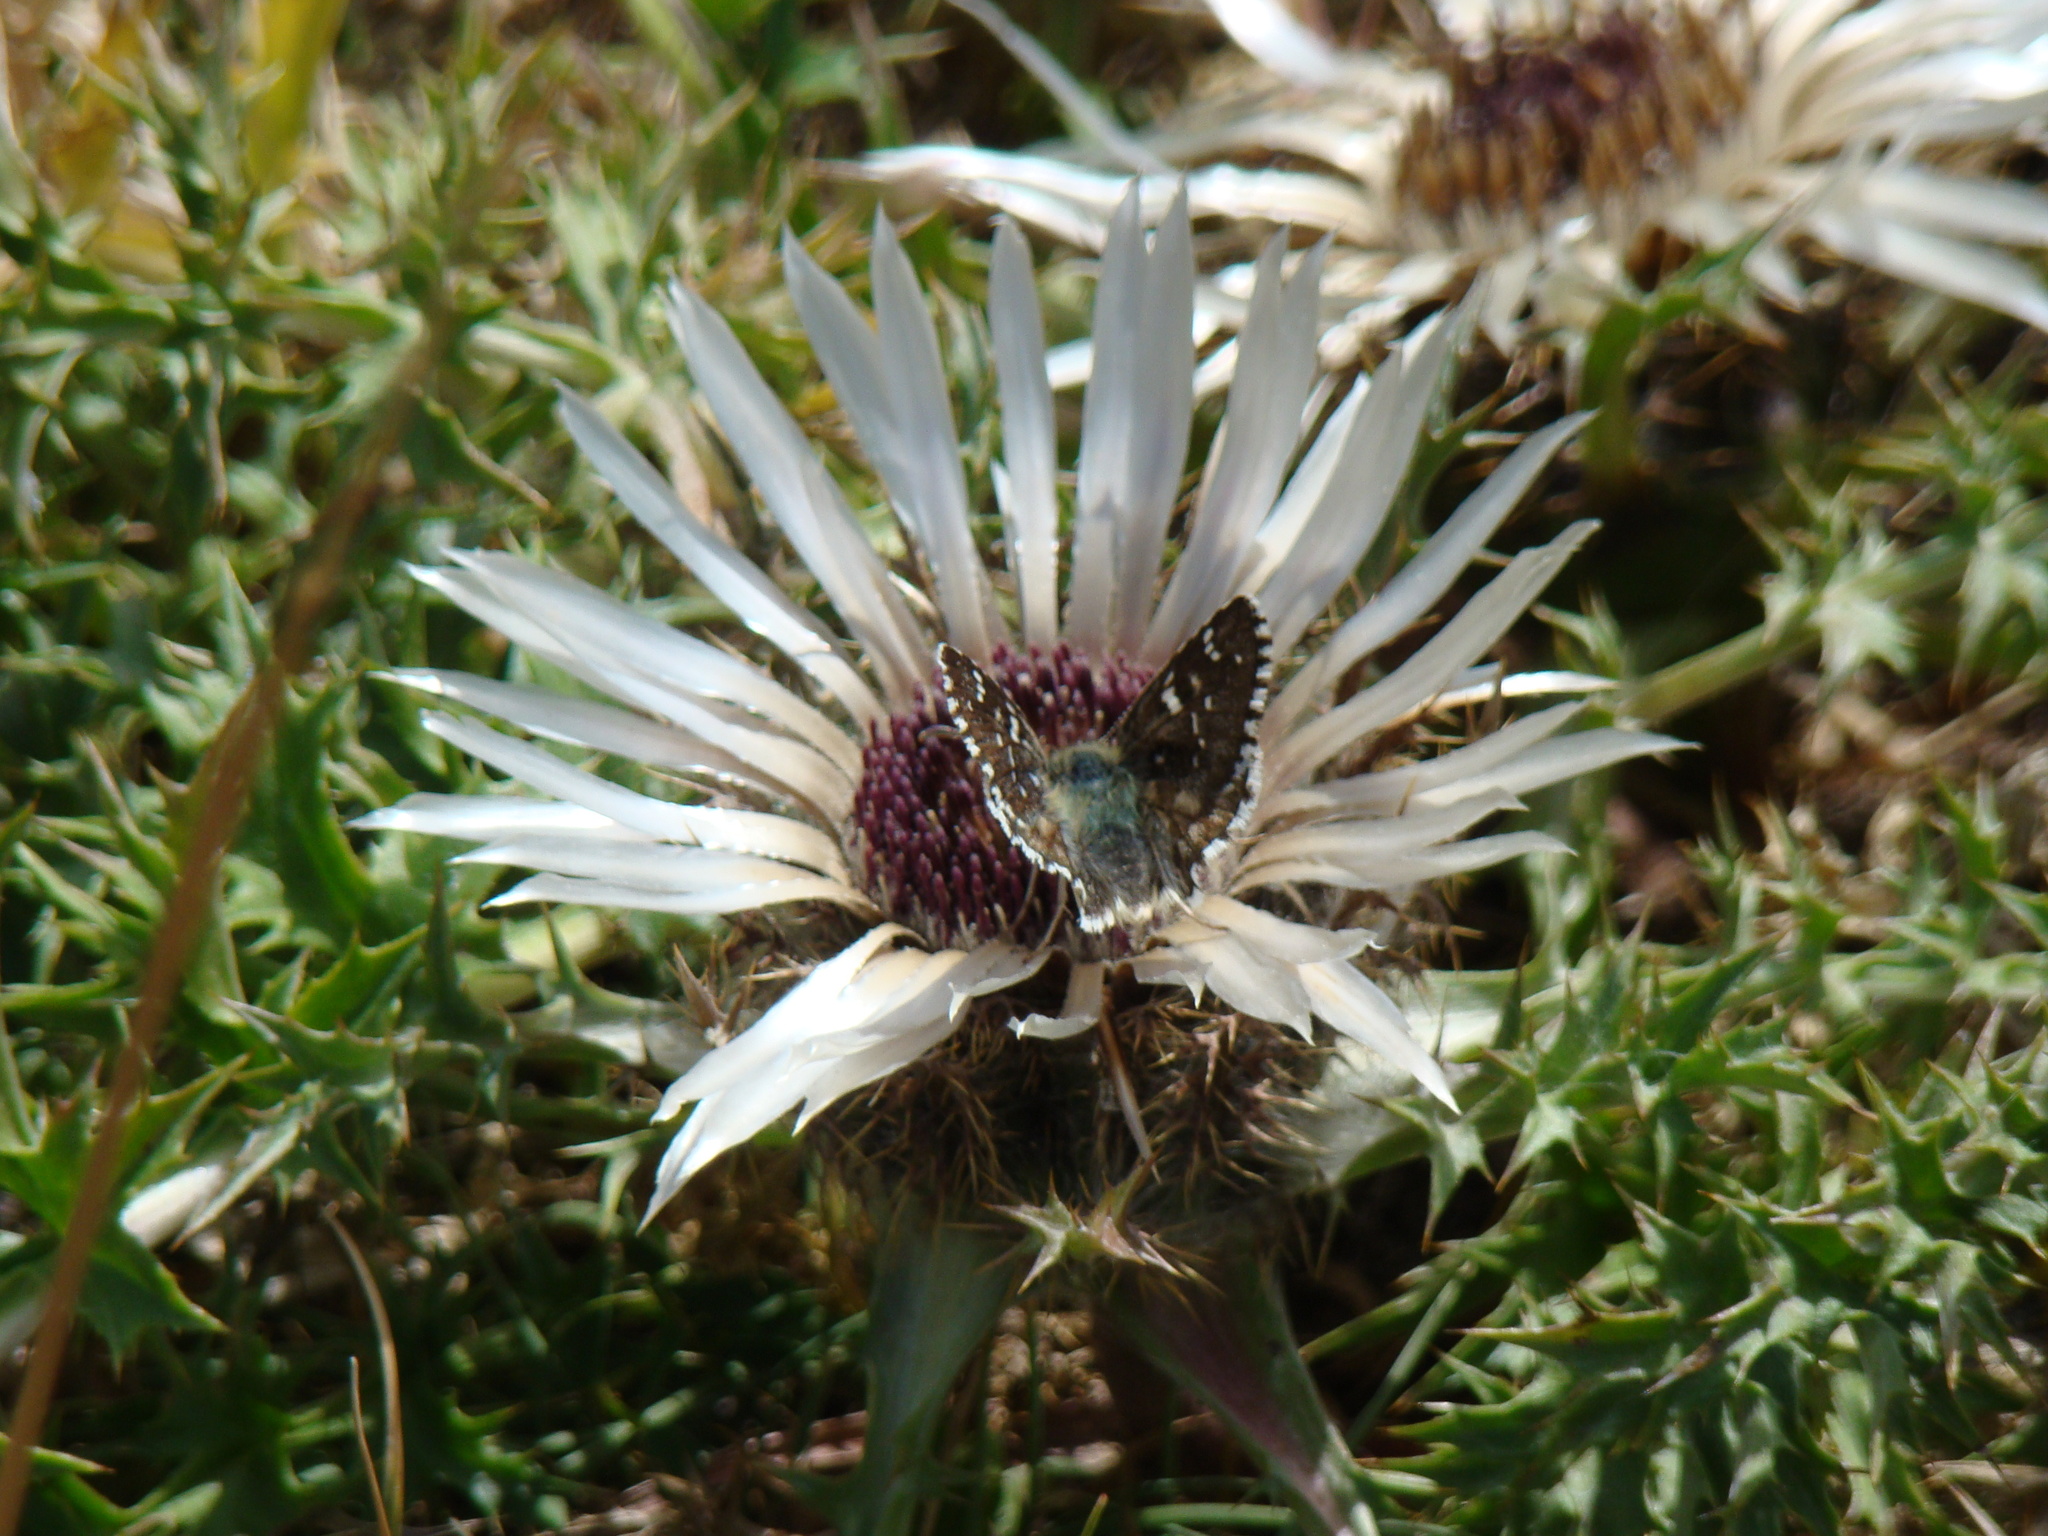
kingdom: Plantae
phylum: Tracheophyta
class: Magnoliopsida
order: Asterales
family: Asteraceae
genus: Carlina
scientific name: Carlina acaulis
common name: Stemless carline thistle
